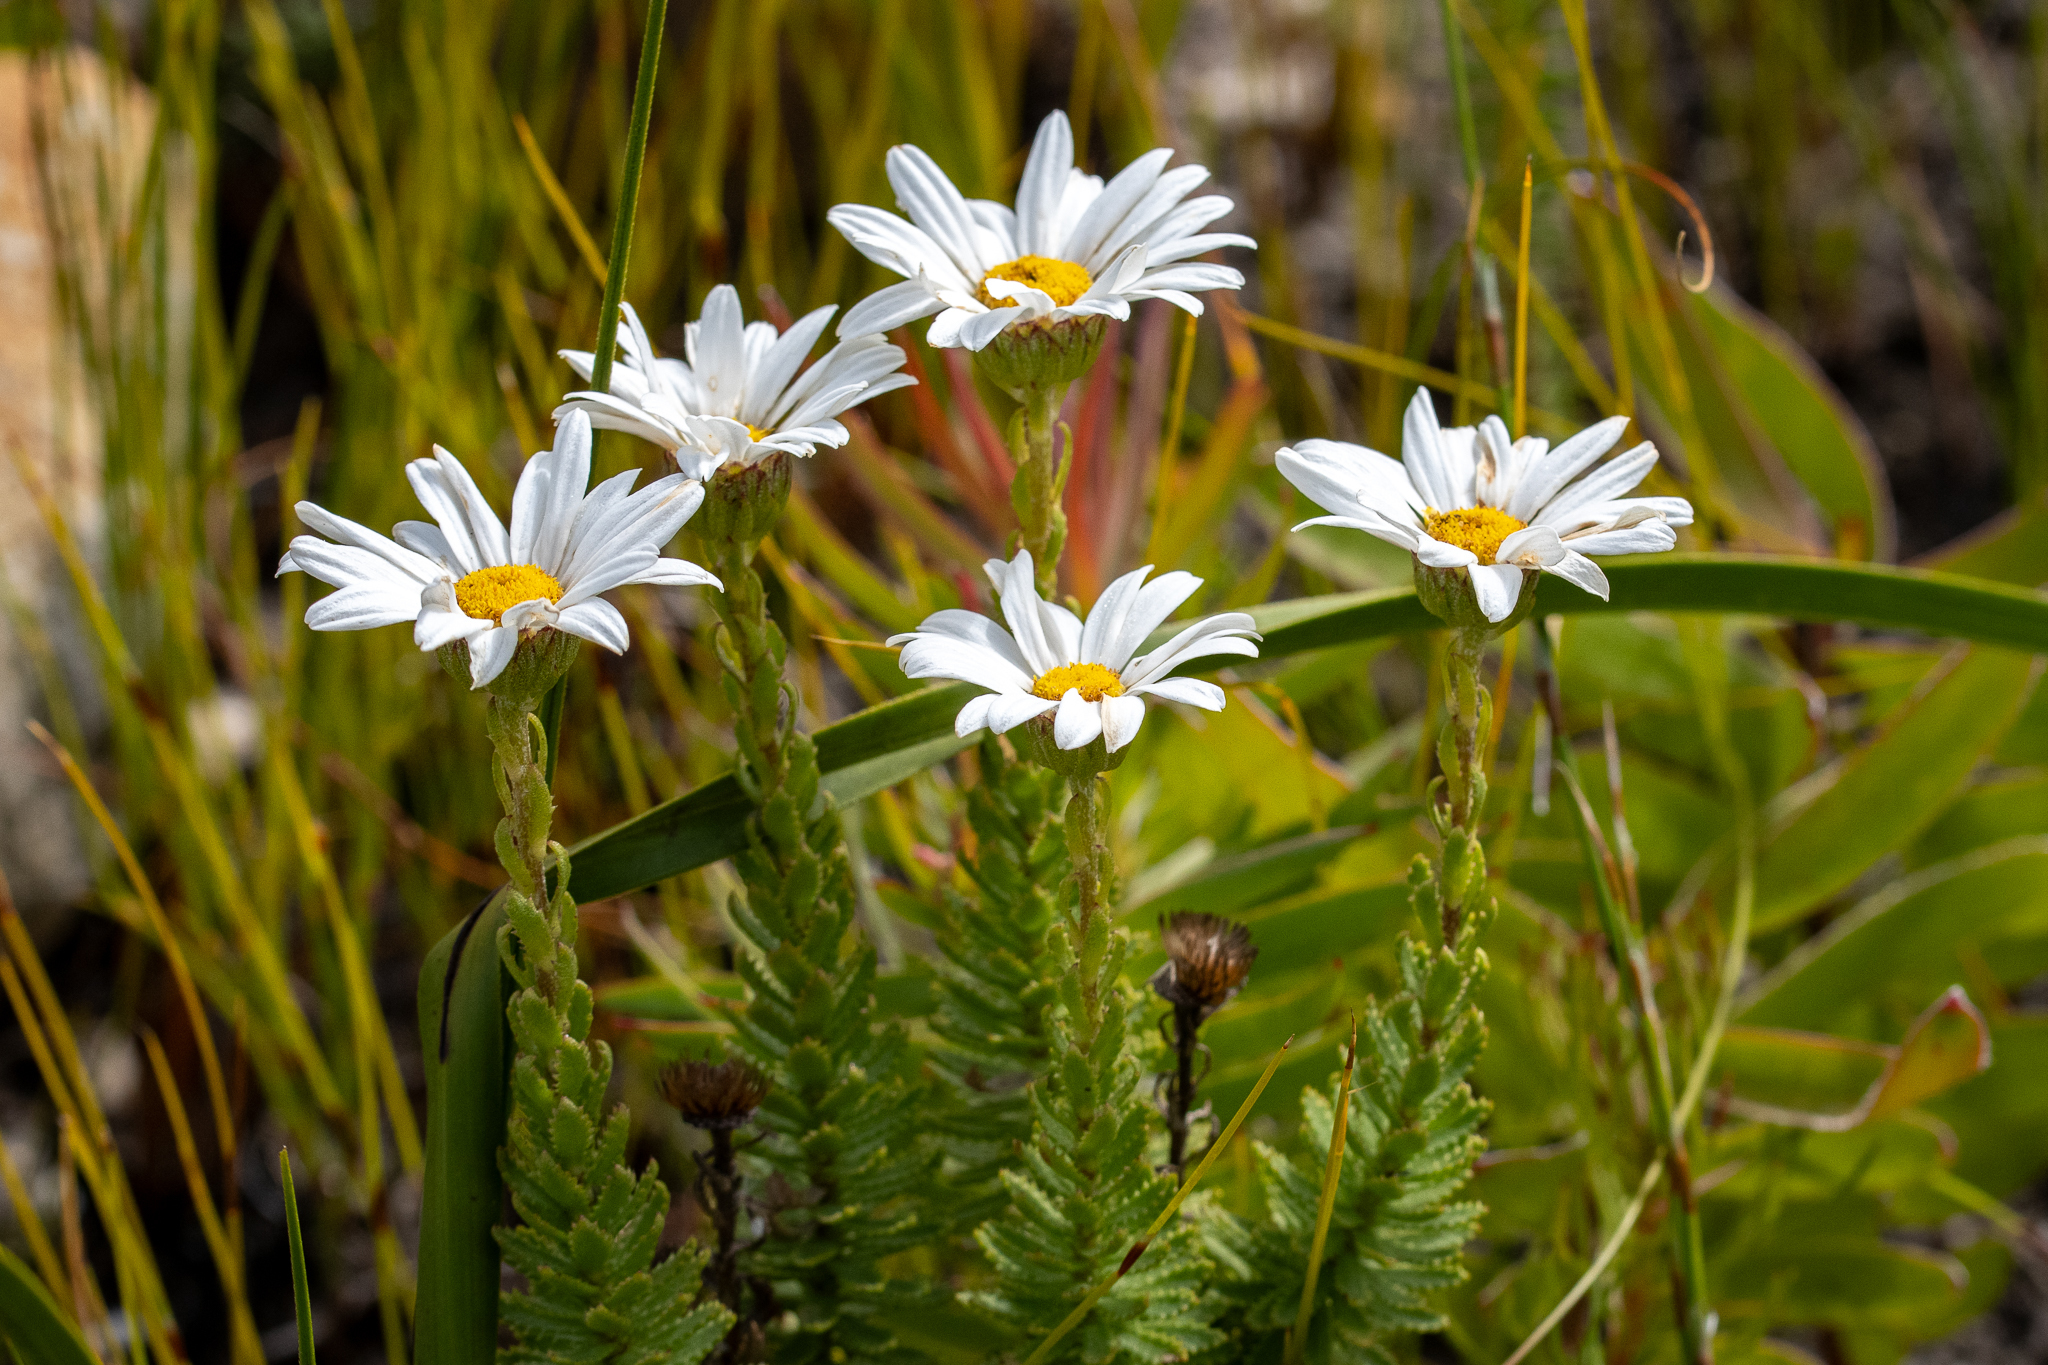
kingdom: Plantae
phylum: Tracheophyta
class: Magnoliopsida
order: Asterales
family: Asteraceae
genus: Osmitopsis
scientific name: Osmitopsis afra
